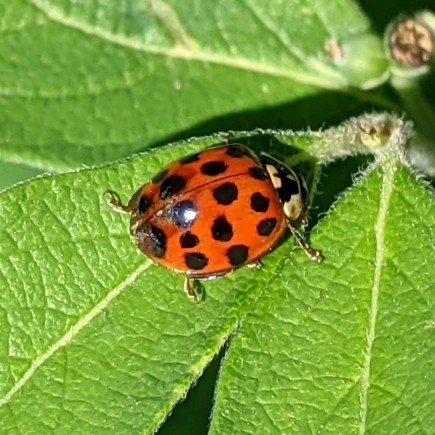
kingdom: Animalia
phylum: Arthropoda
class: Insecta
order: Coleoptera
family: Coccinellidae
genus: Harmonia
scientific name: Harmonia axyridis
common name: Harlequin ladybird
